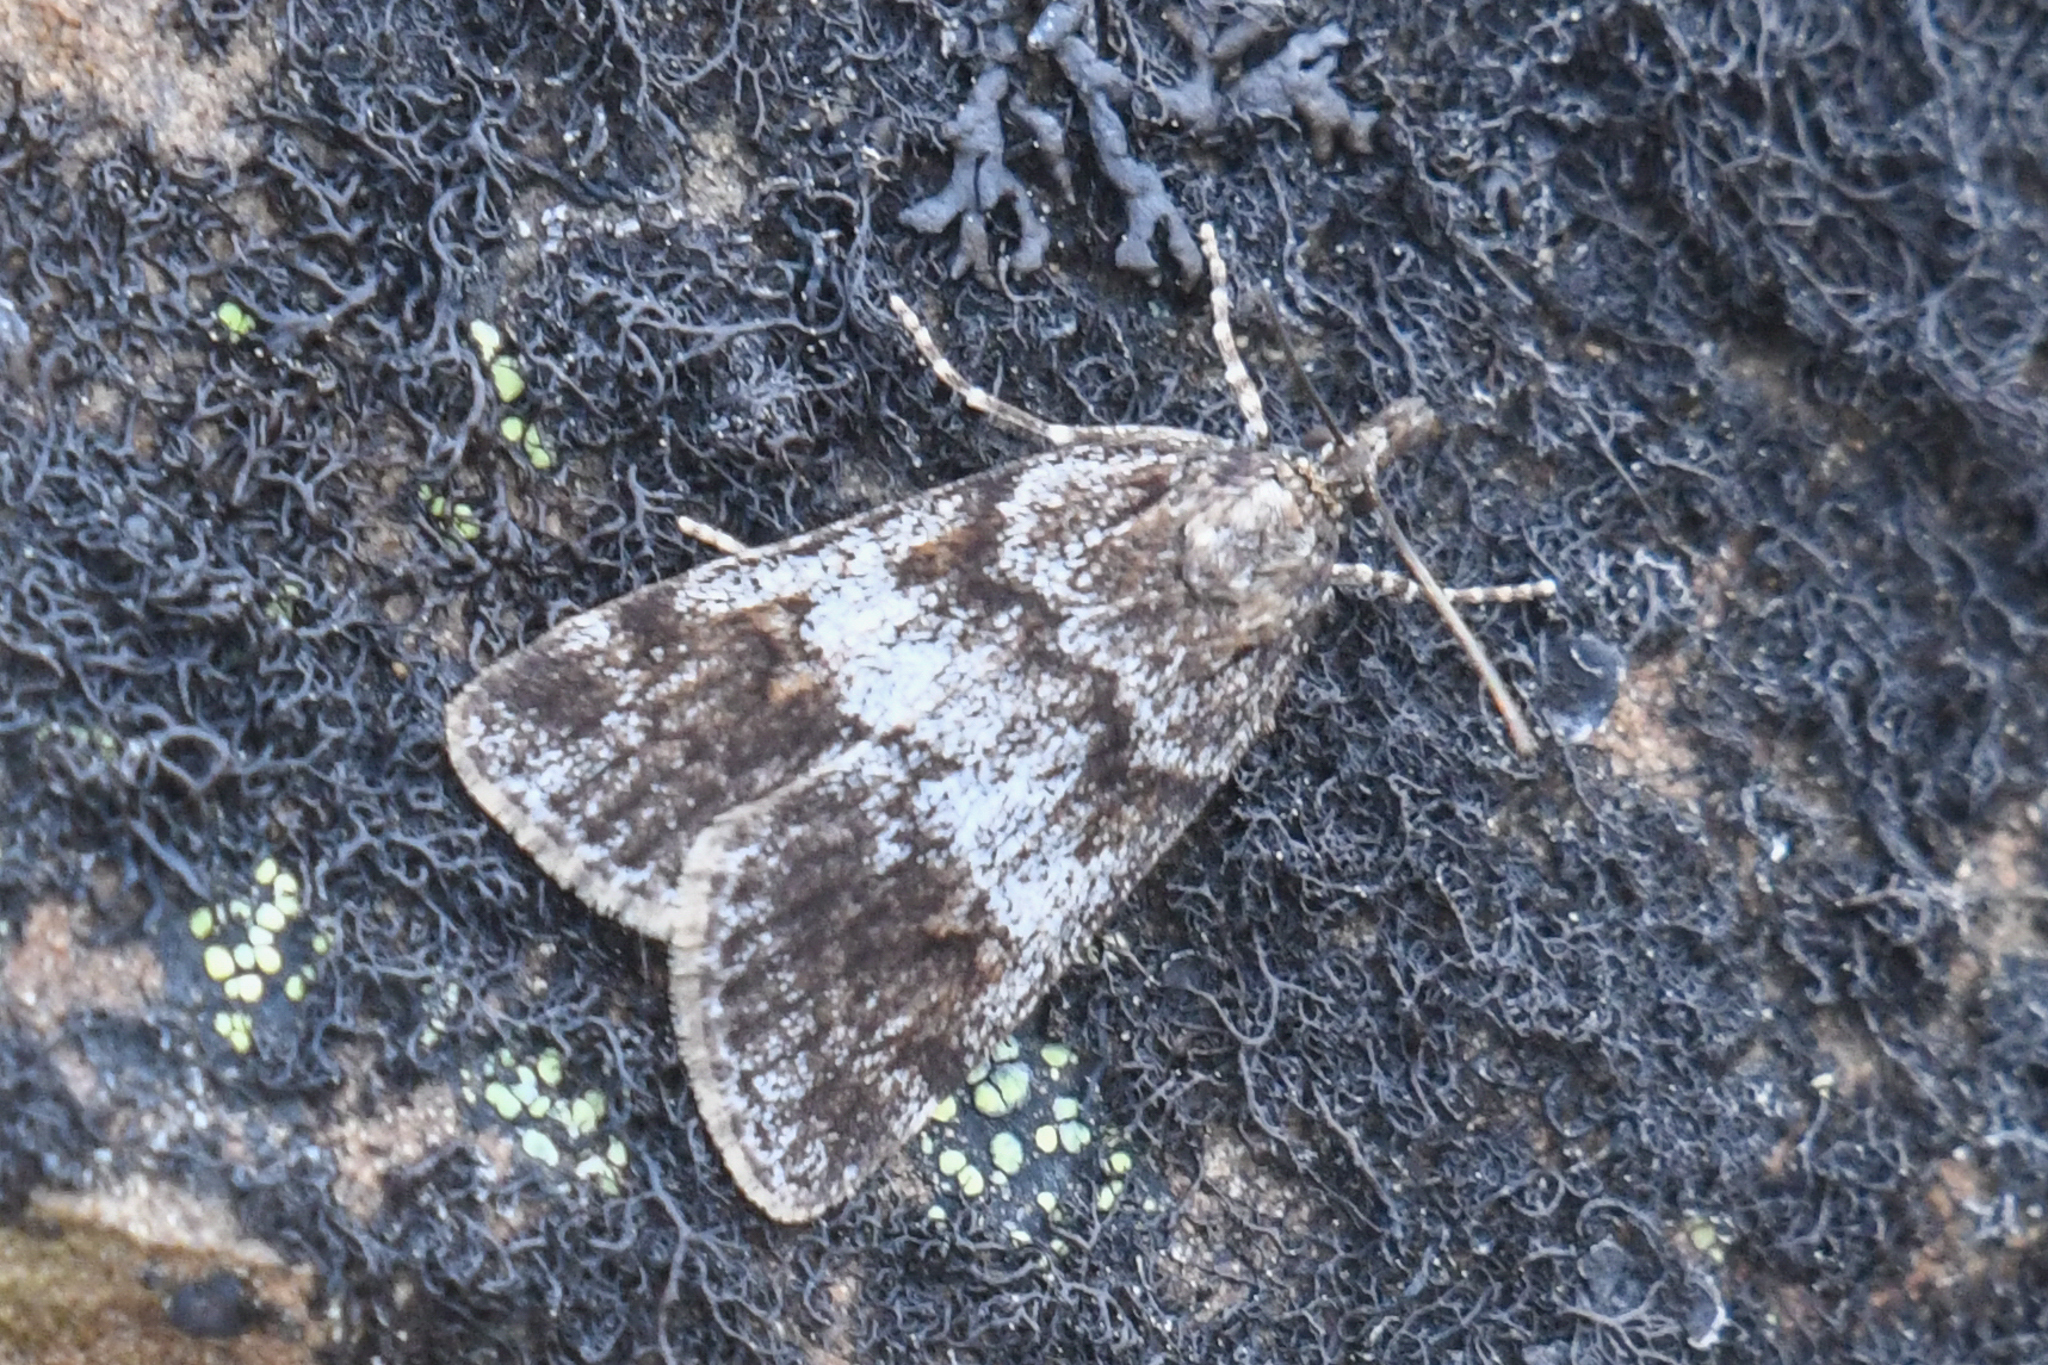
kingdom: Animalia
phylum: Arthropoda
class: Insecta
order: Lepidoptera
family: Crambidae
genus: Gesneria
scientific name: Gesneria centuriella
